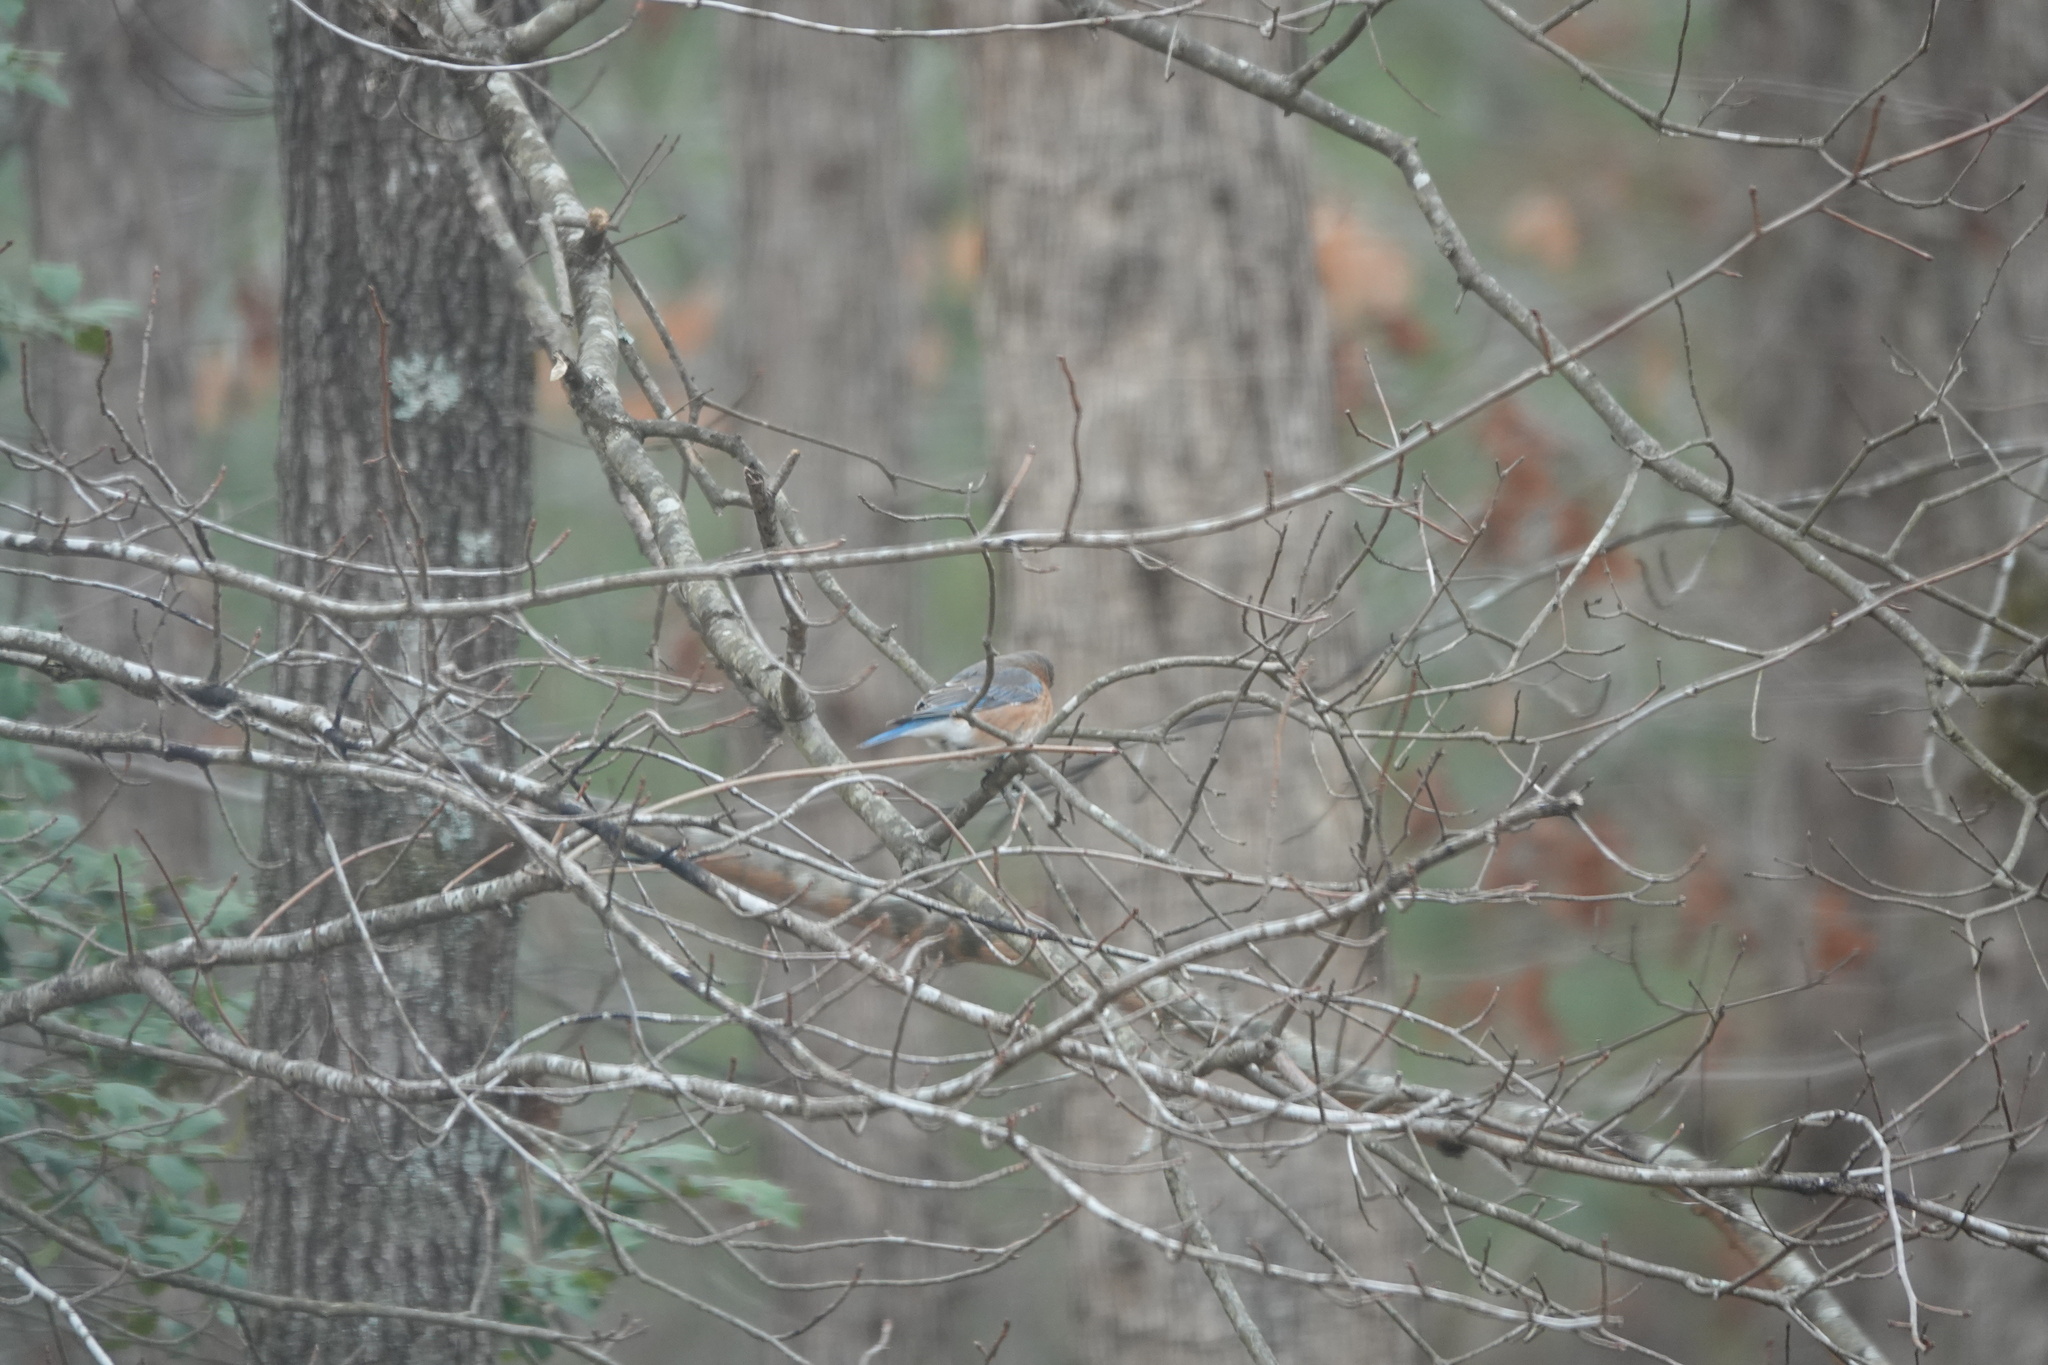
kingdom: Animalia
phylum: Chordata
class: Aves
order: Passeriformes
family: Turdidae
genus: Sialia
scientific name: Sialia sialis
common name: Eastern bluebird
